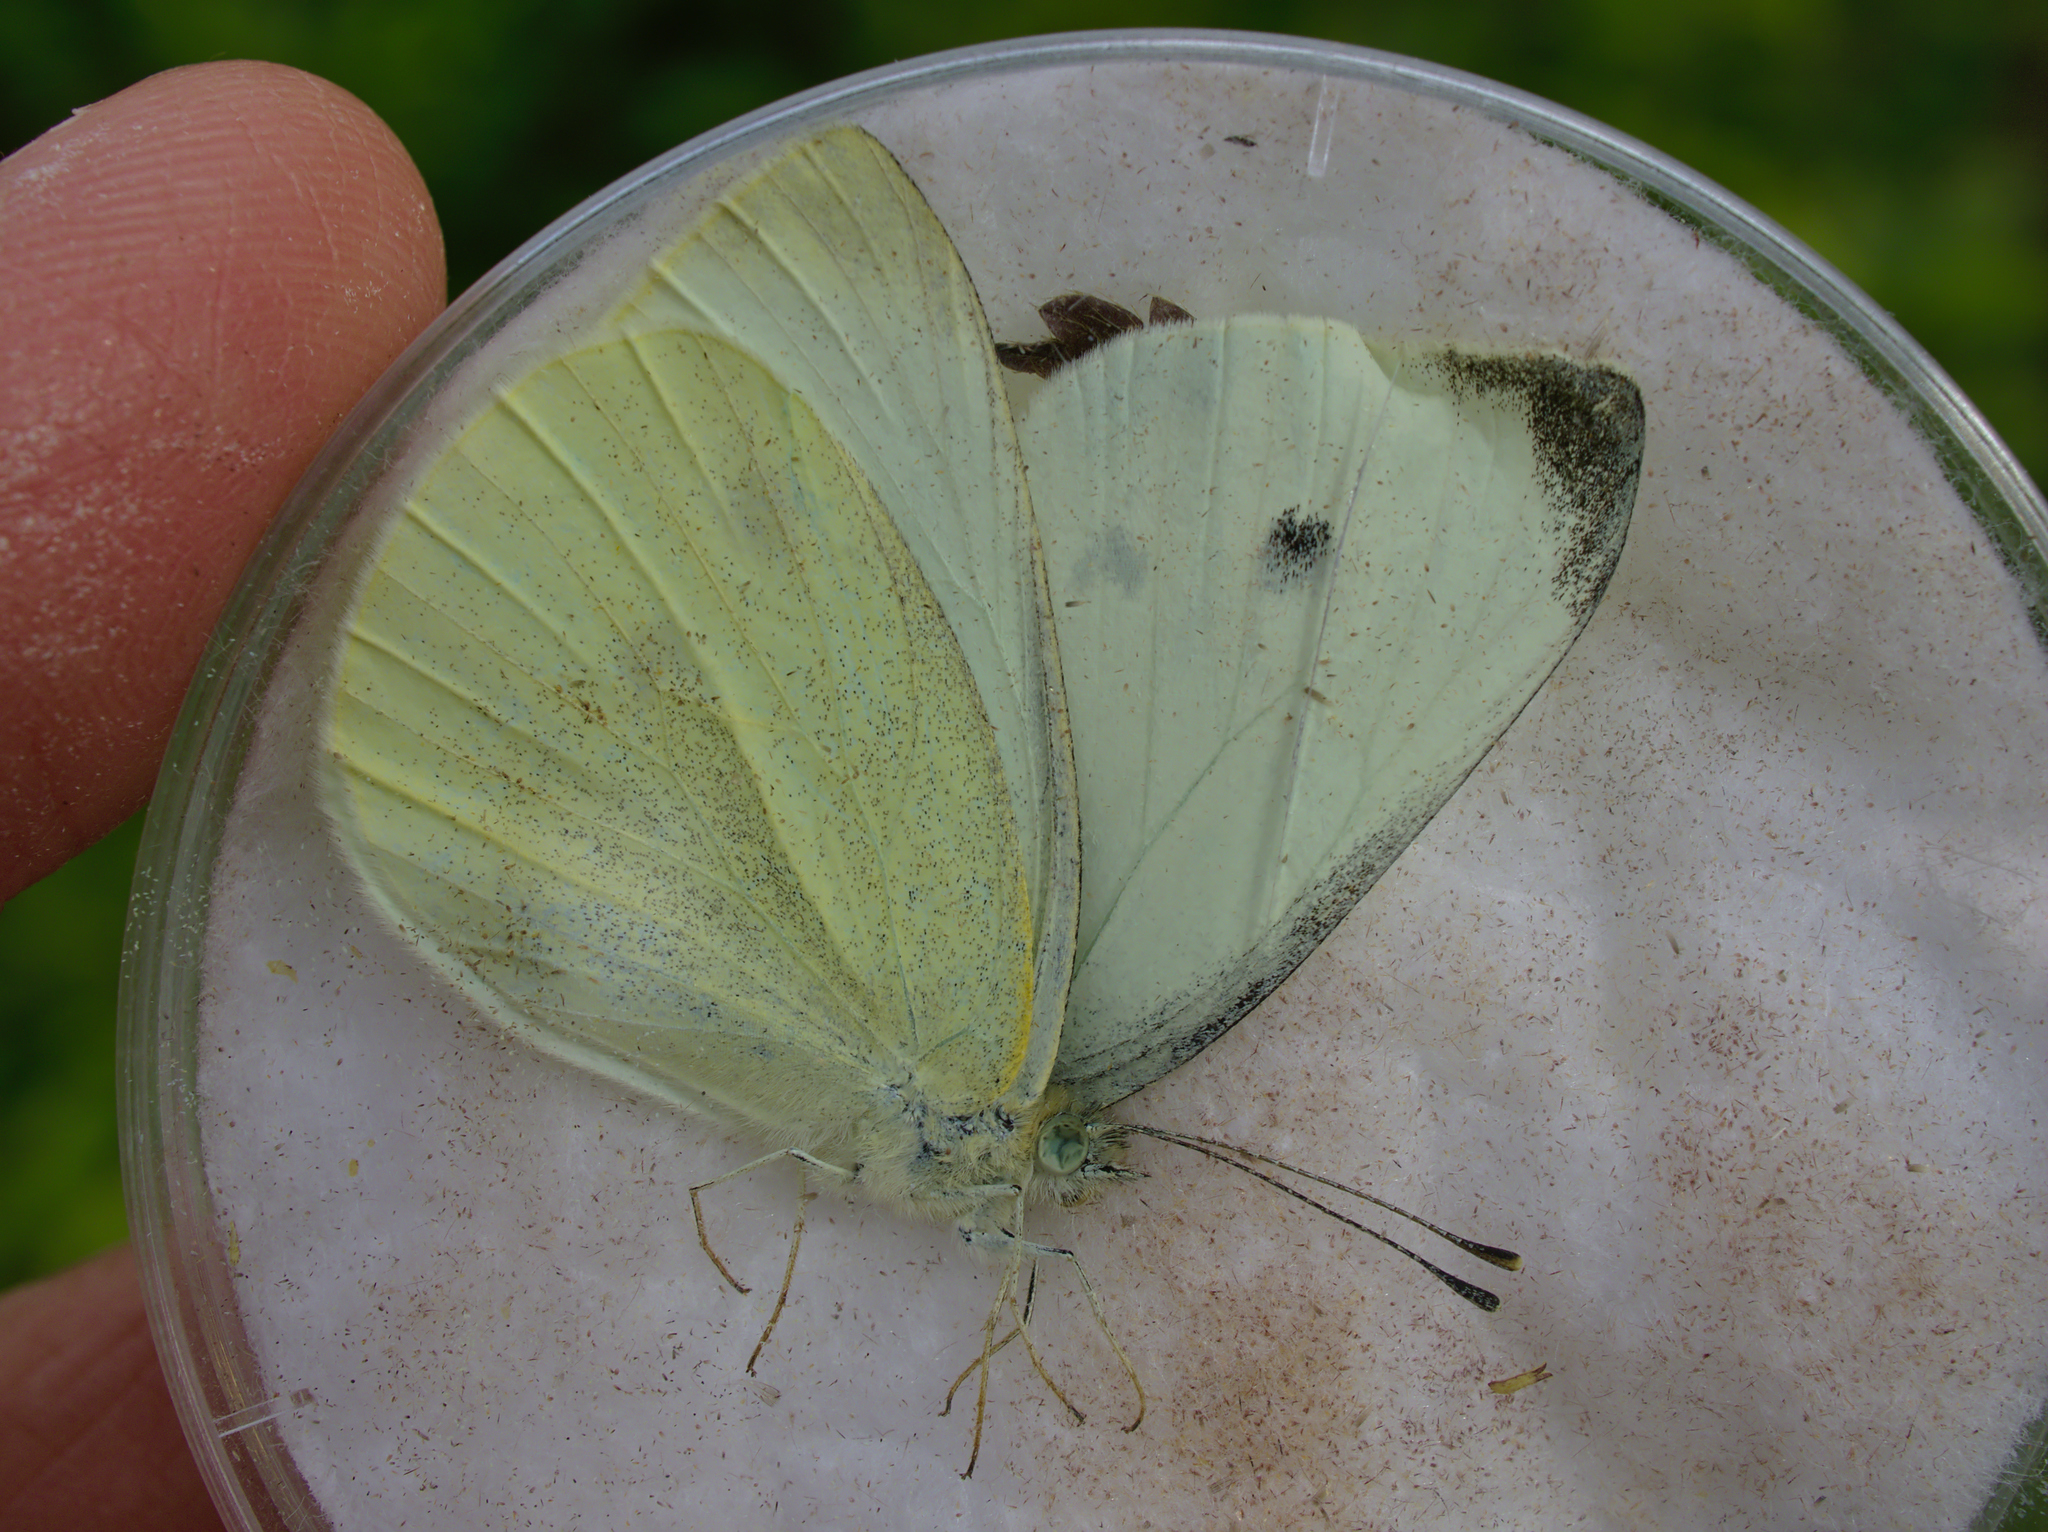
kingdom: Animalia
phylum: Arthropoda
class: Insecta
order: Lepidoptera
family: Pieridae
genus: Pieris
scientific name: Pieris rapae
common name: Small white
